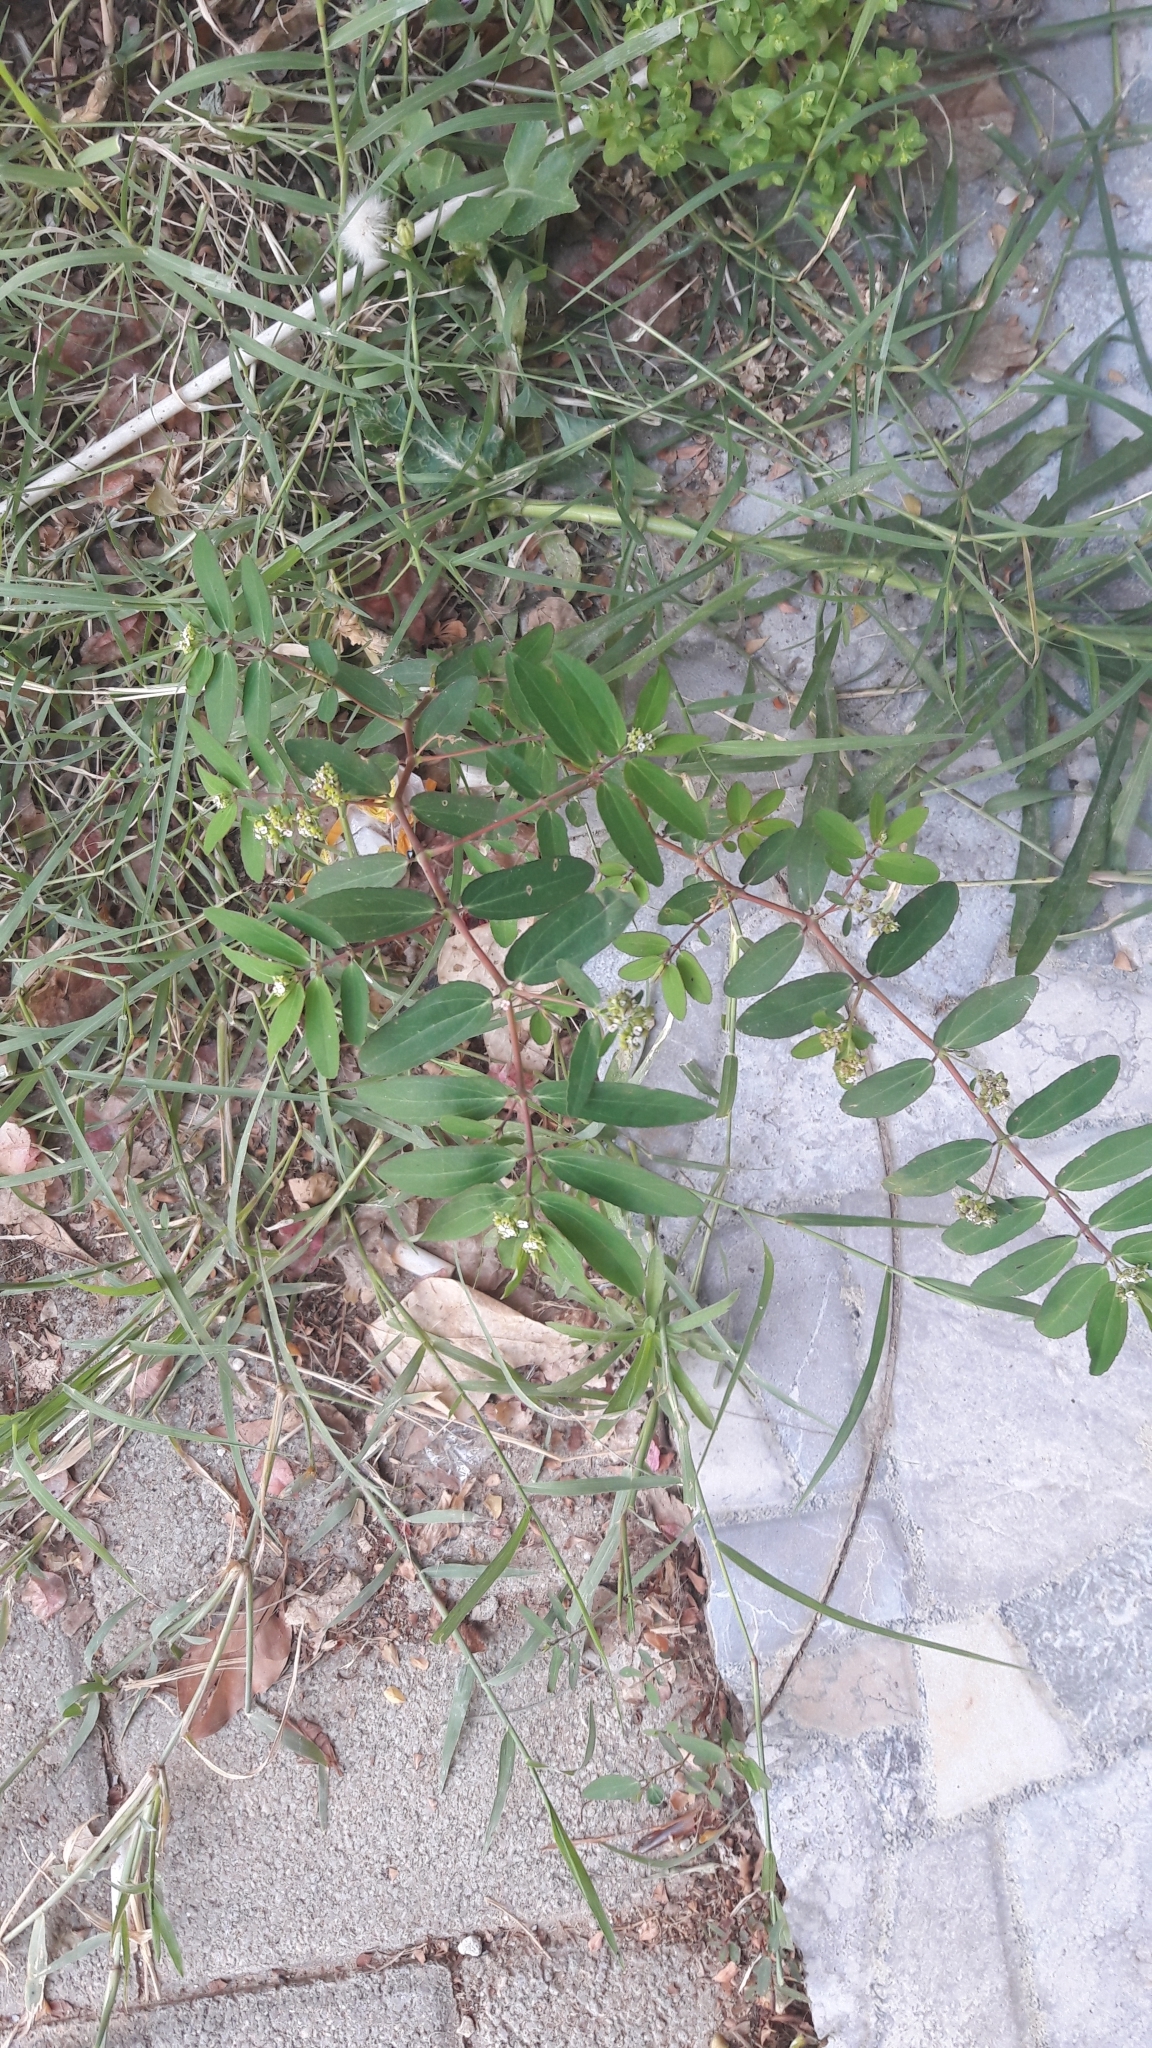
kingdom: Plantae
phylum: Tracheophyta
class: Magnoliopsida
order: Malpighiales
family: Euphorbiaceae
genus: Euphorbia
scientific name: Euphorbia hypericifolia
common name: Graceful sandmat
